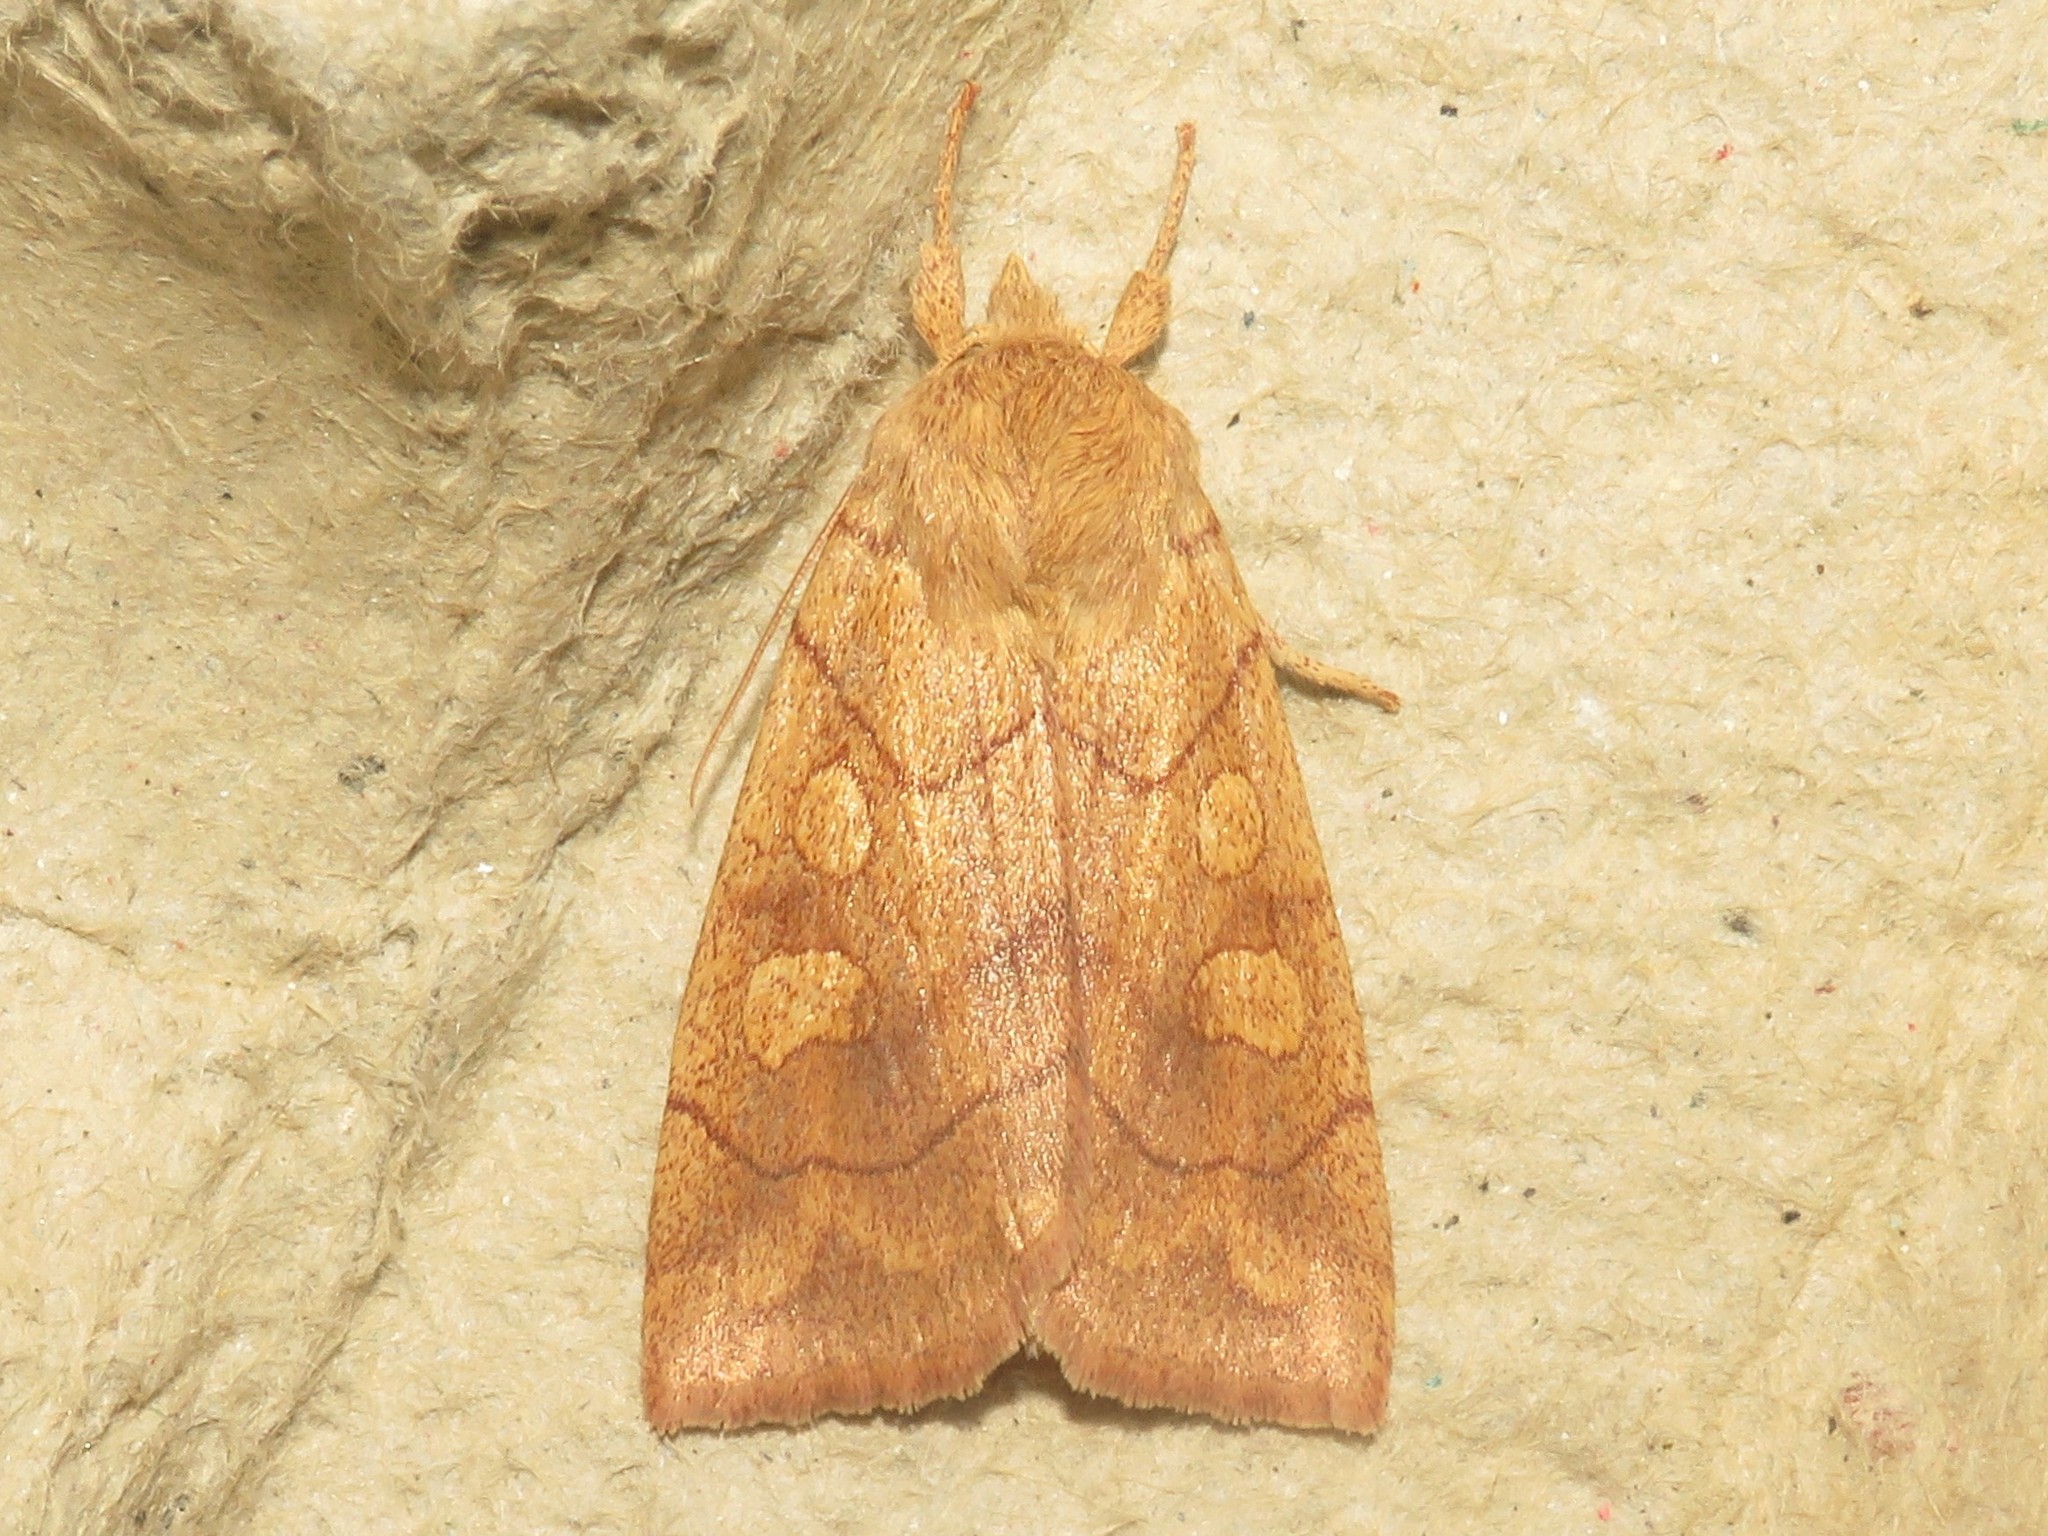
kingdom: Animalia
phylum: Arthropoda
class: Insecta
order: Lepidoptera
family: Noctuidae
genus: Enargia
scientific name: Enargia decolor
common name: Aspen twoleaf tier moth
